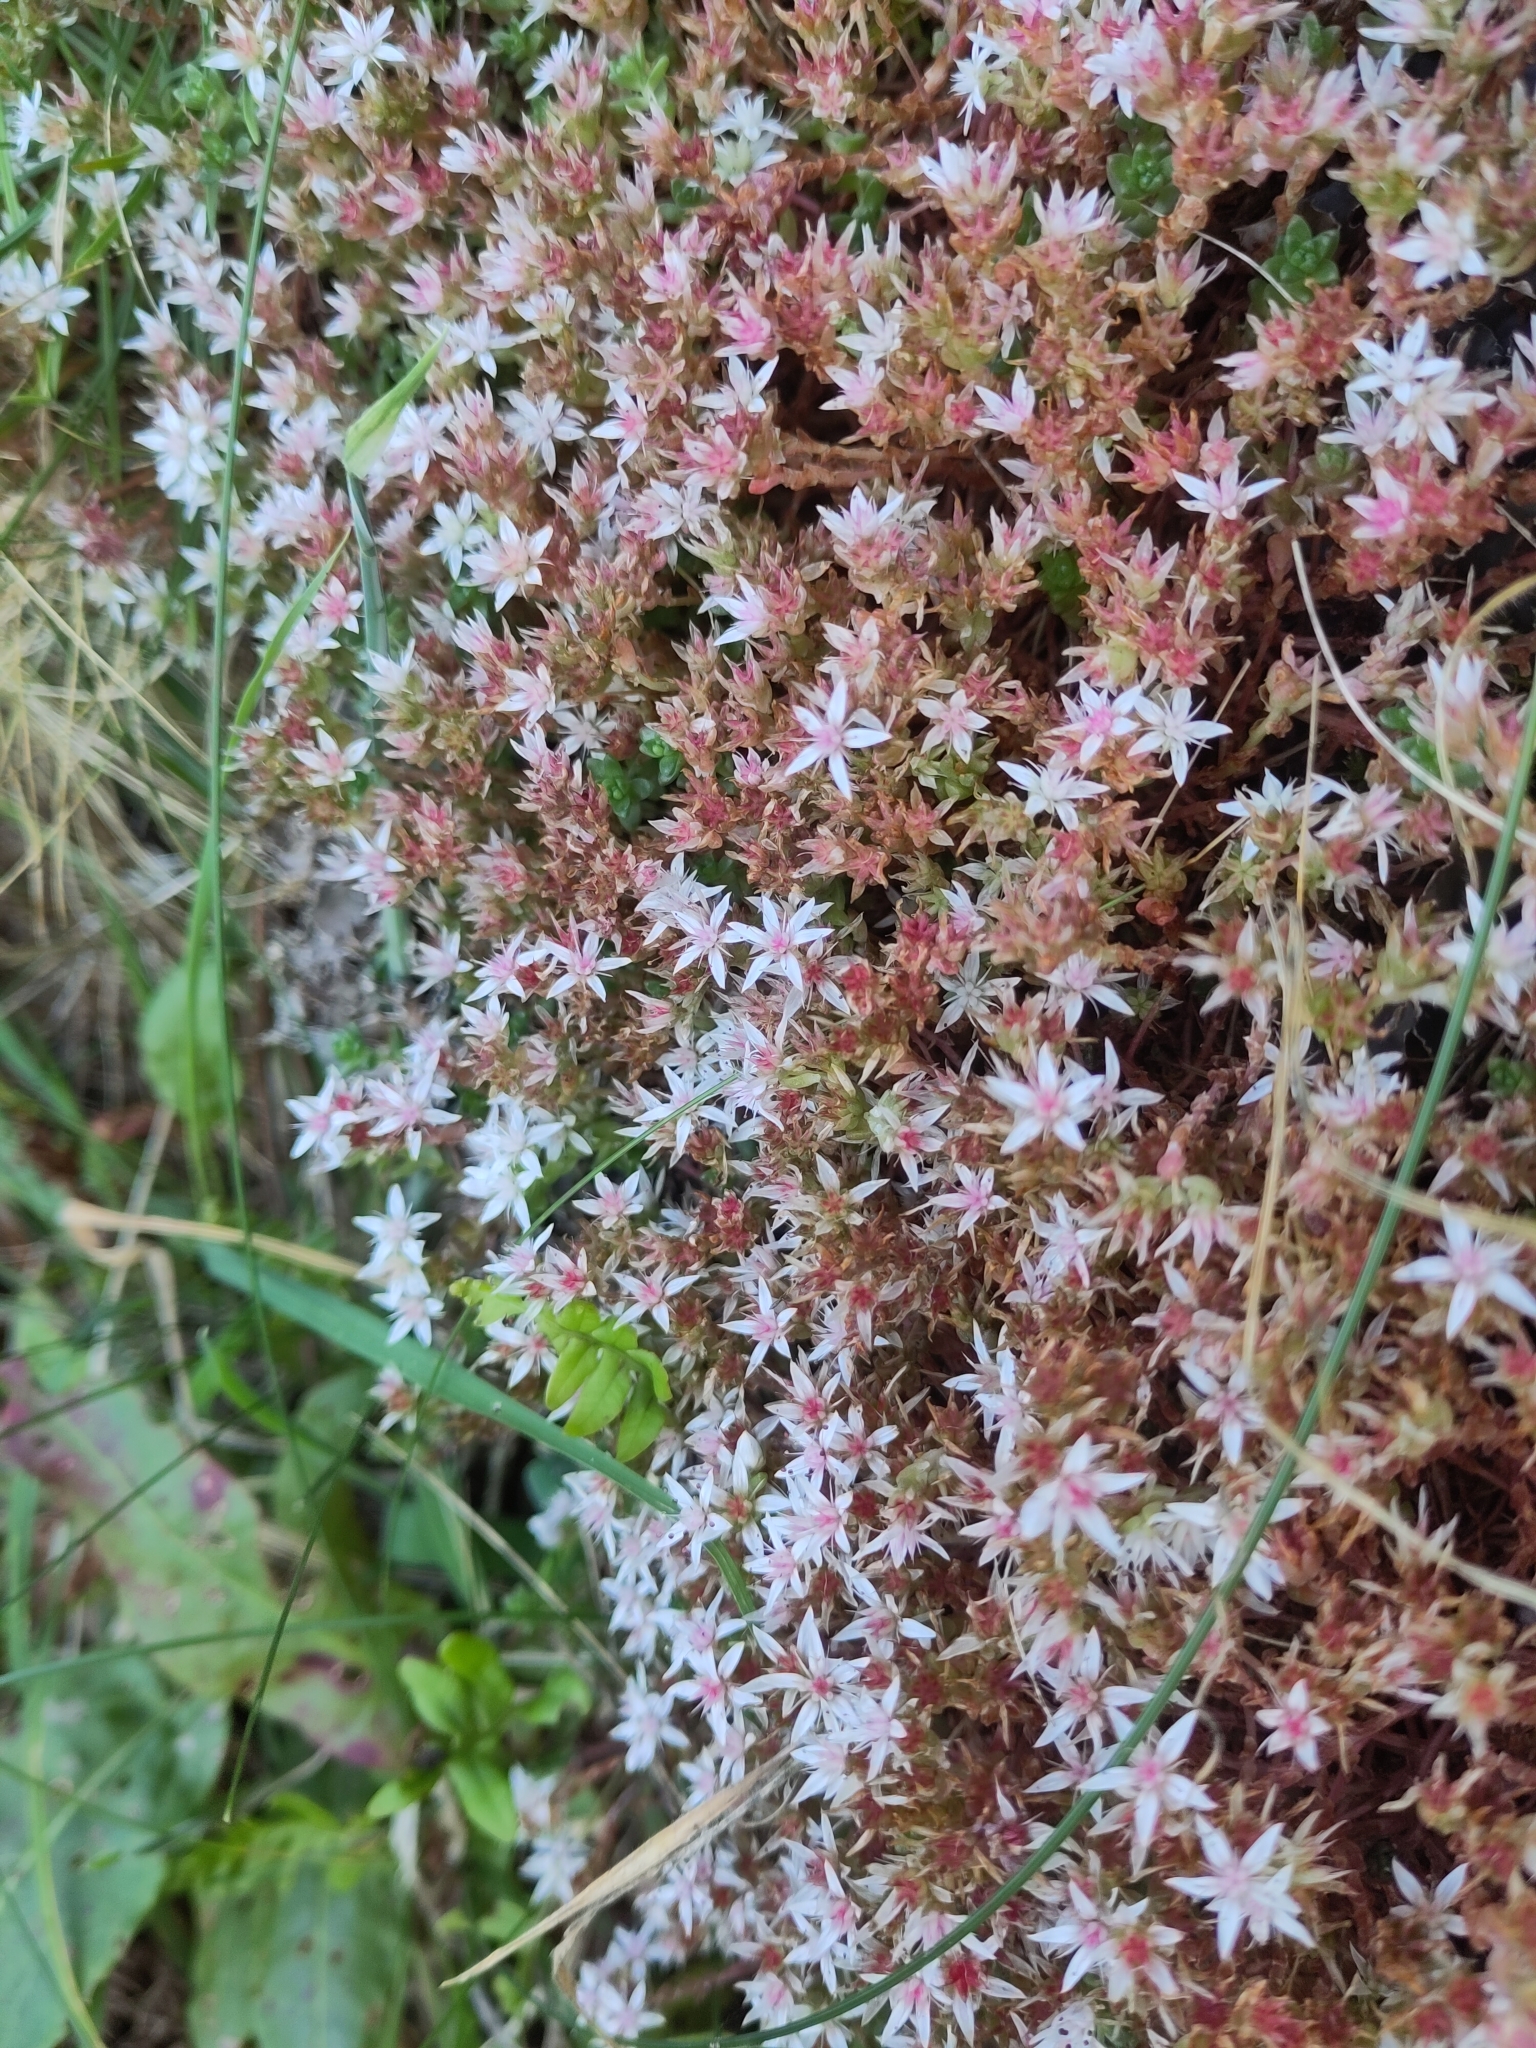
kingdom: Plantae
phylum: Tracheophyta
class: Magnoliopsida
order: Saxifragales
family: Crassulaceae
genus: Sedum
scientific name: Sedum anglicum
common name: English stonecrop
